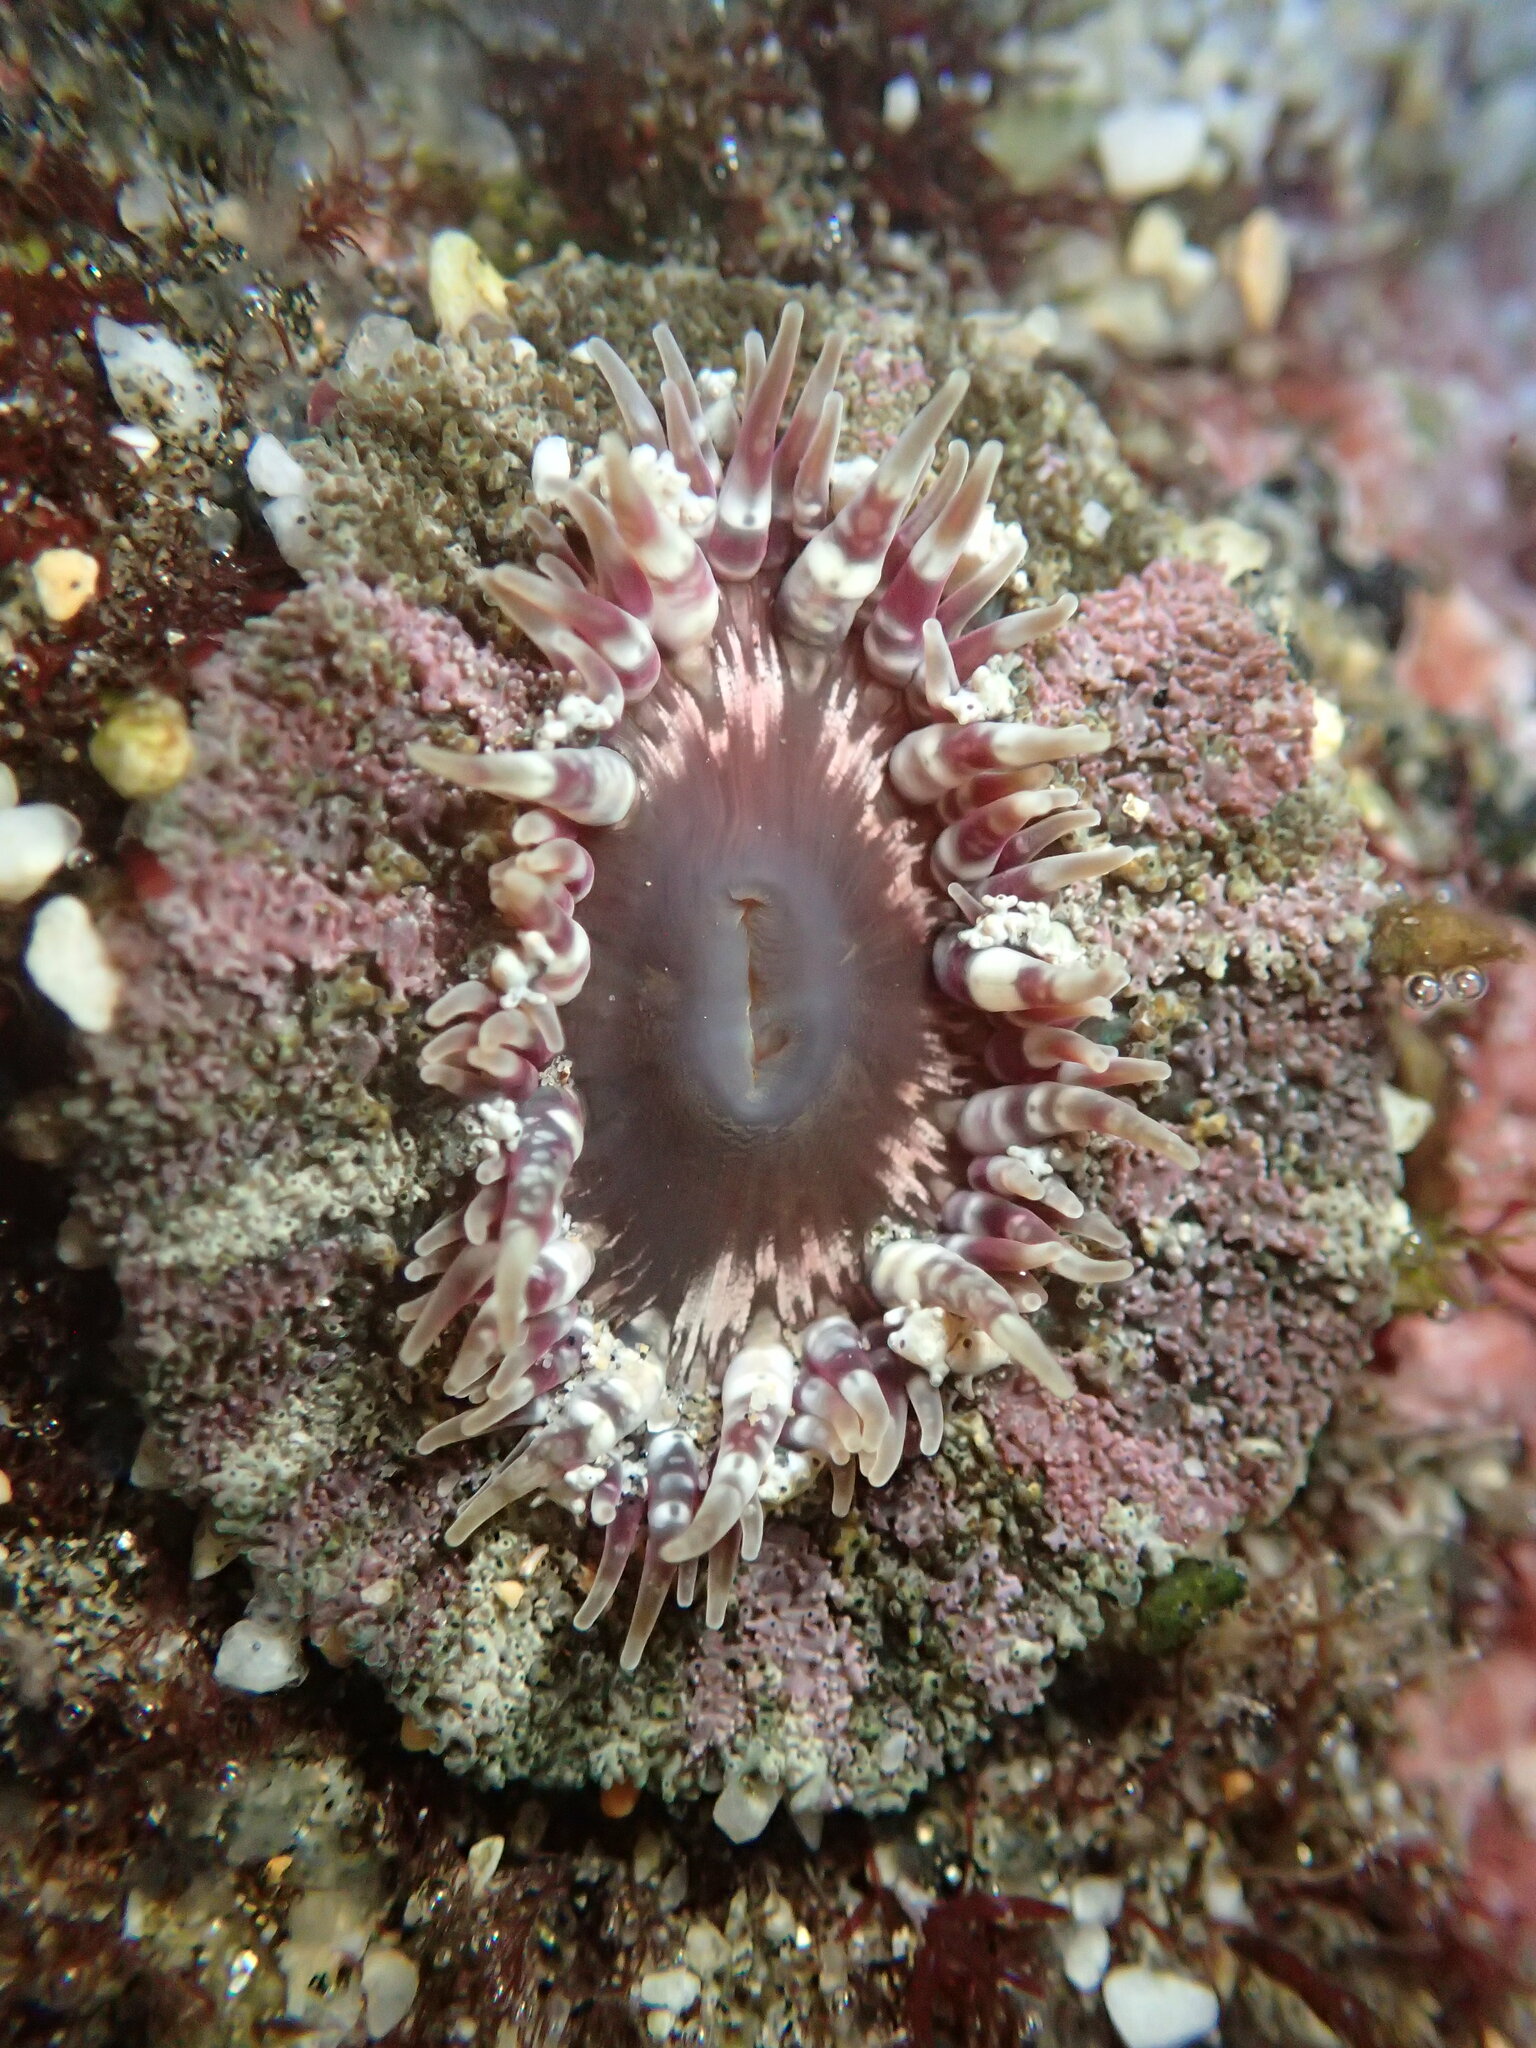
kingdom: Animalia
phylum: Cnidaria
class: Anthozoa
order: Actiniaria
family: Actiniidae
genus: Actinostella
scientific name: Actinostella bradleyi
